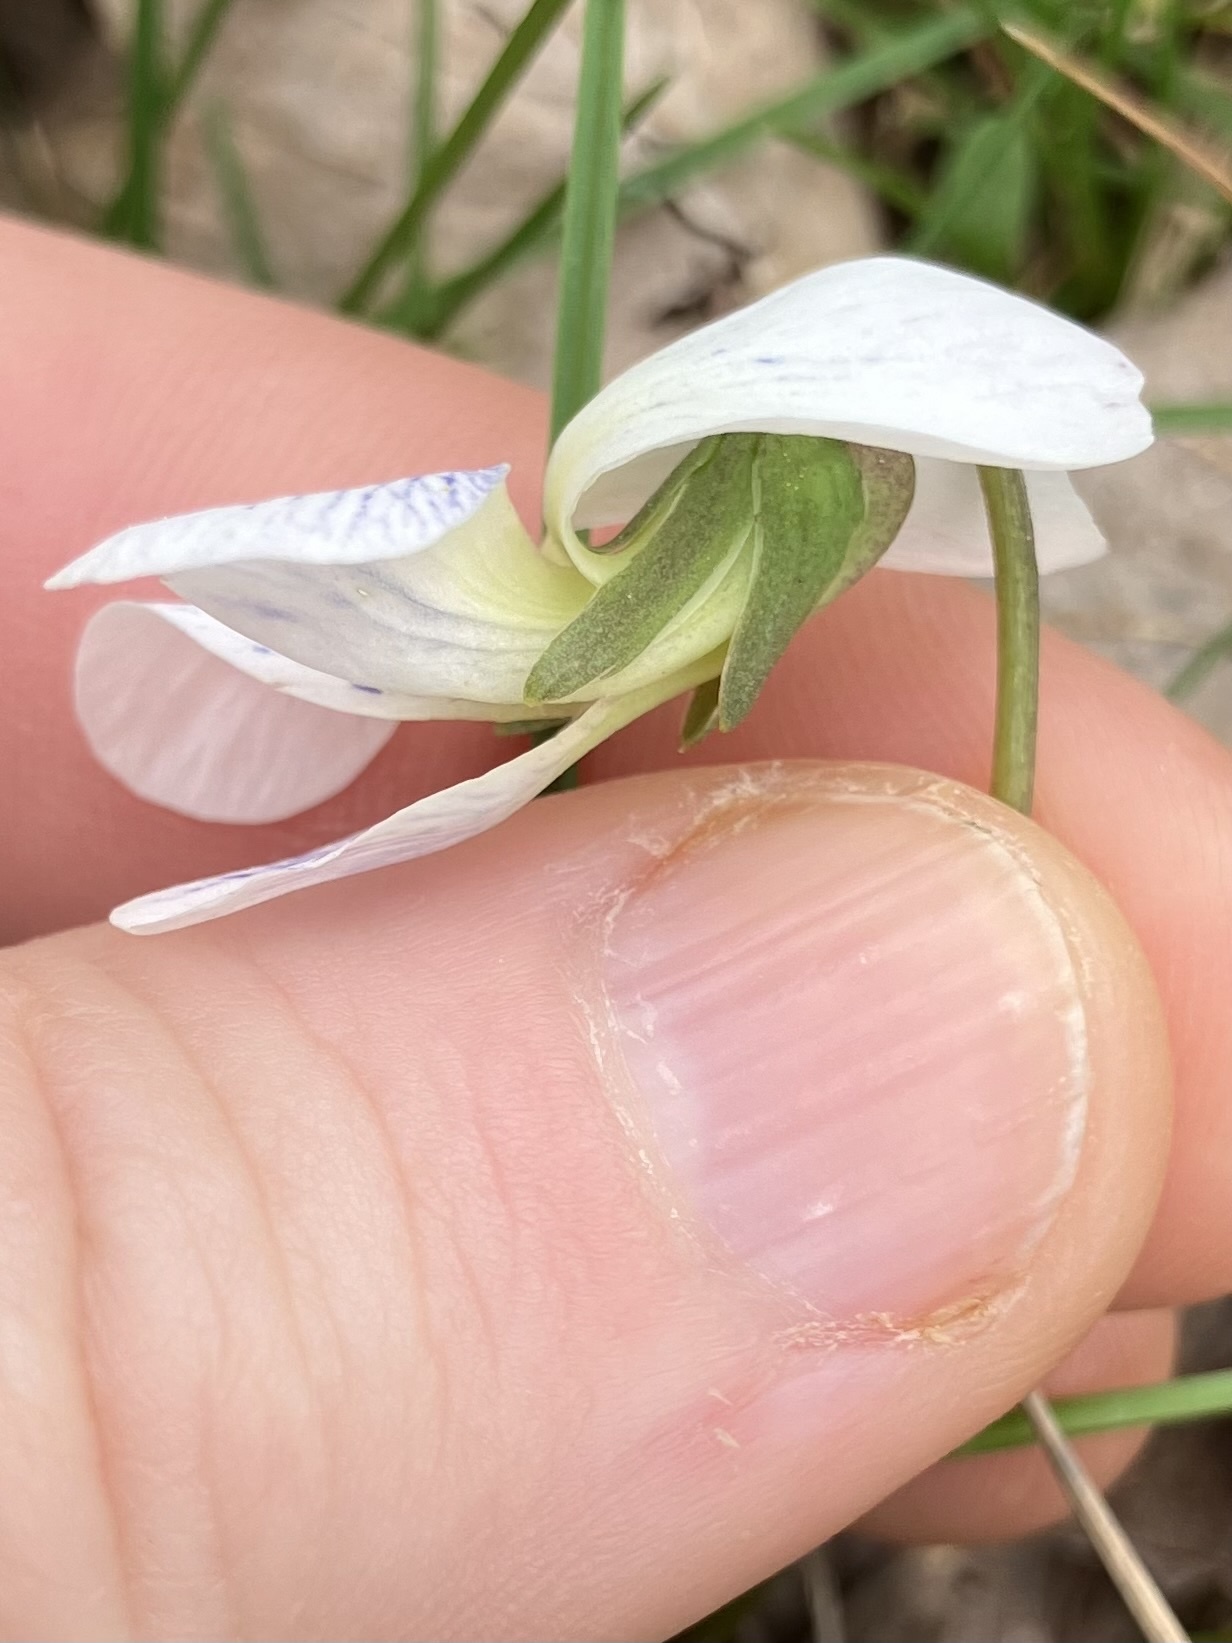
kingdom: Plantae
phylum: Tracheophyta
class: Magnoliopsida
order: Malpighiales
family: Violaceae
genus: Viola
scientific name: Viola communis
